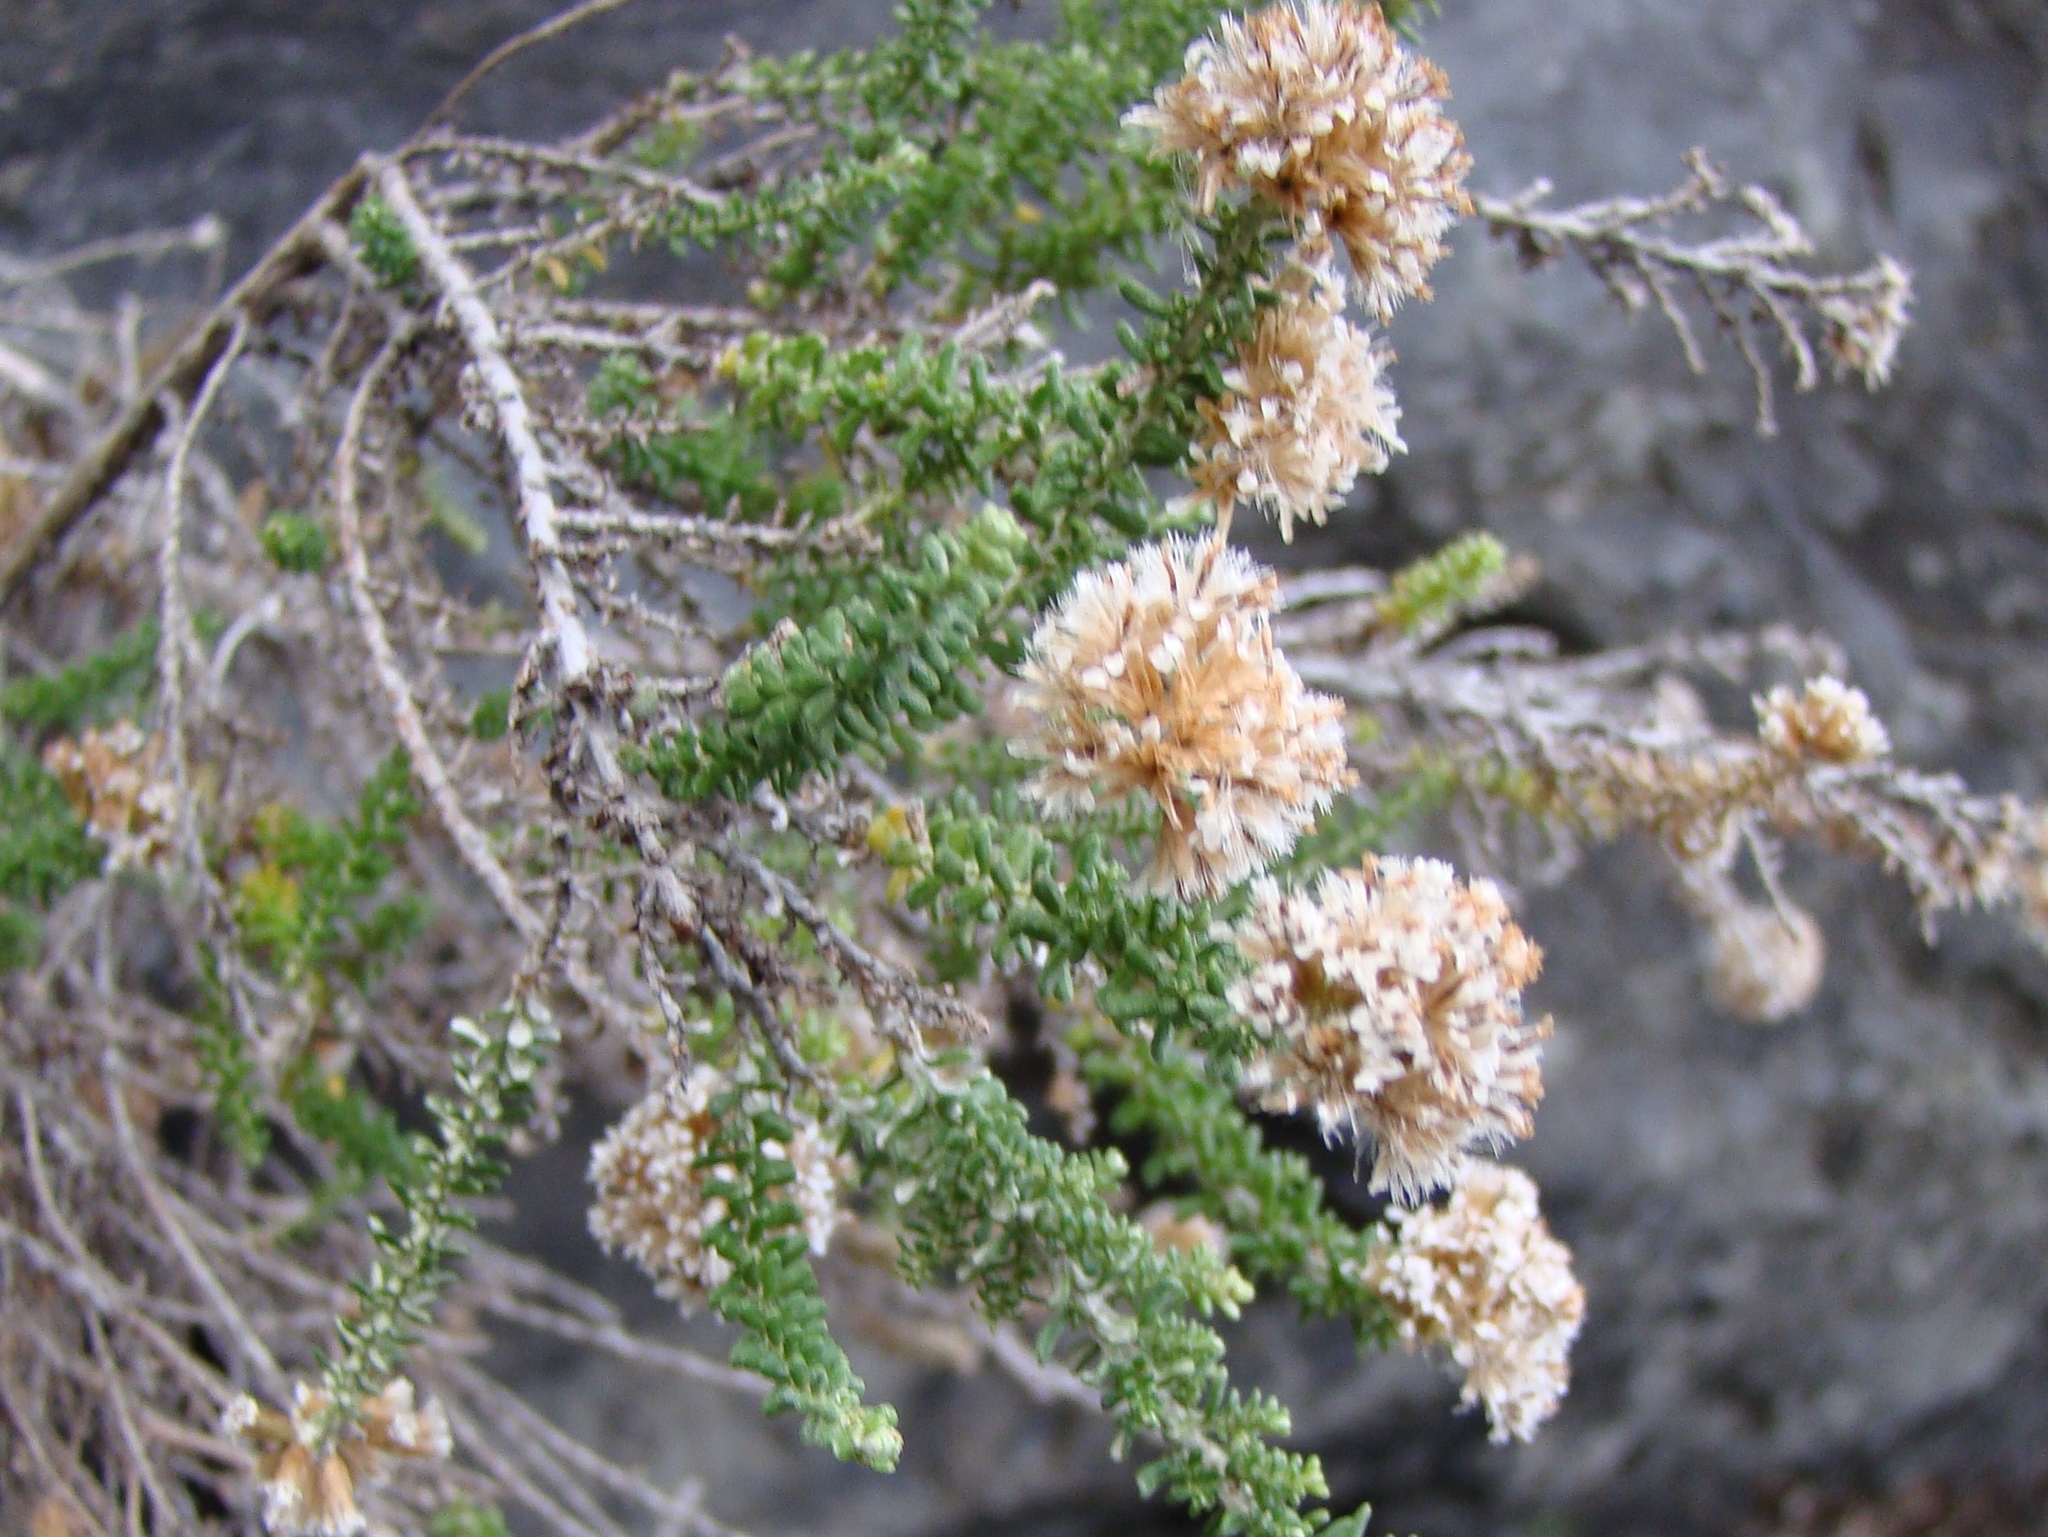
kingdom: Plantae
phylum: Tracheophyta
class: Magnoliopsida
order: Asterales
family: Asteraceae
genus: Ozothamnus
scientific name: Ozothamnus leptophyllus
